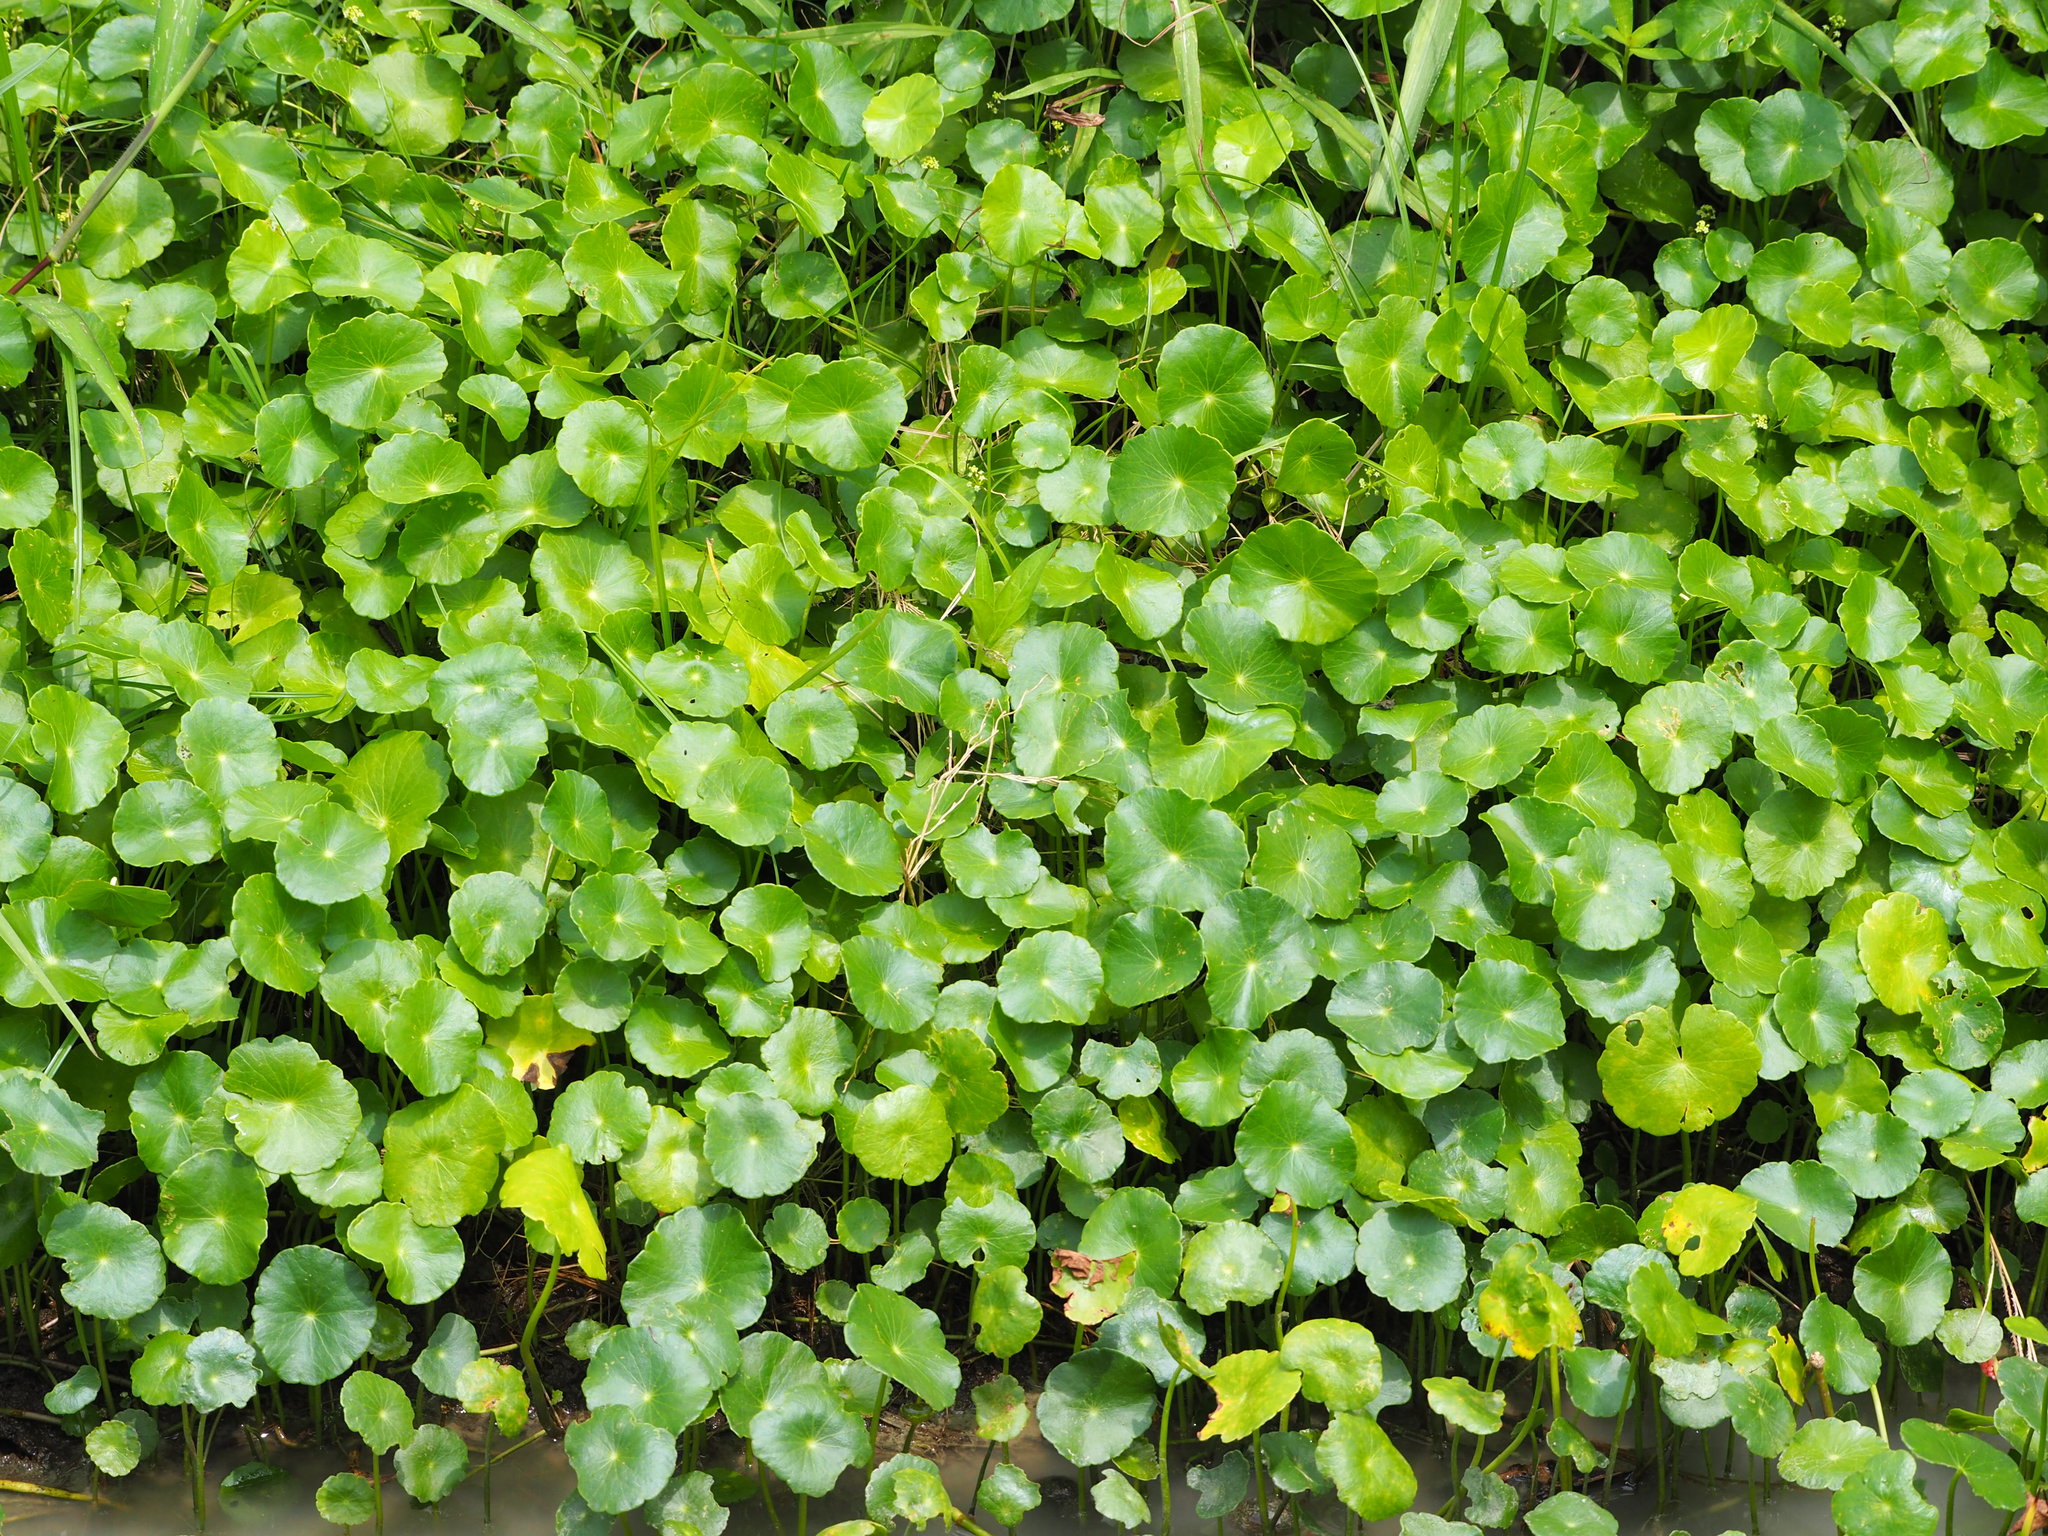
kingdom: Plantae
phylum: Tracheophyta
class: Magnoliopsida
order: Apiales
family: Araliaceae
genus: Hydrocotyle
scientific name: Hydrocotyle verticillata
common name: Whorled marshpennywort
